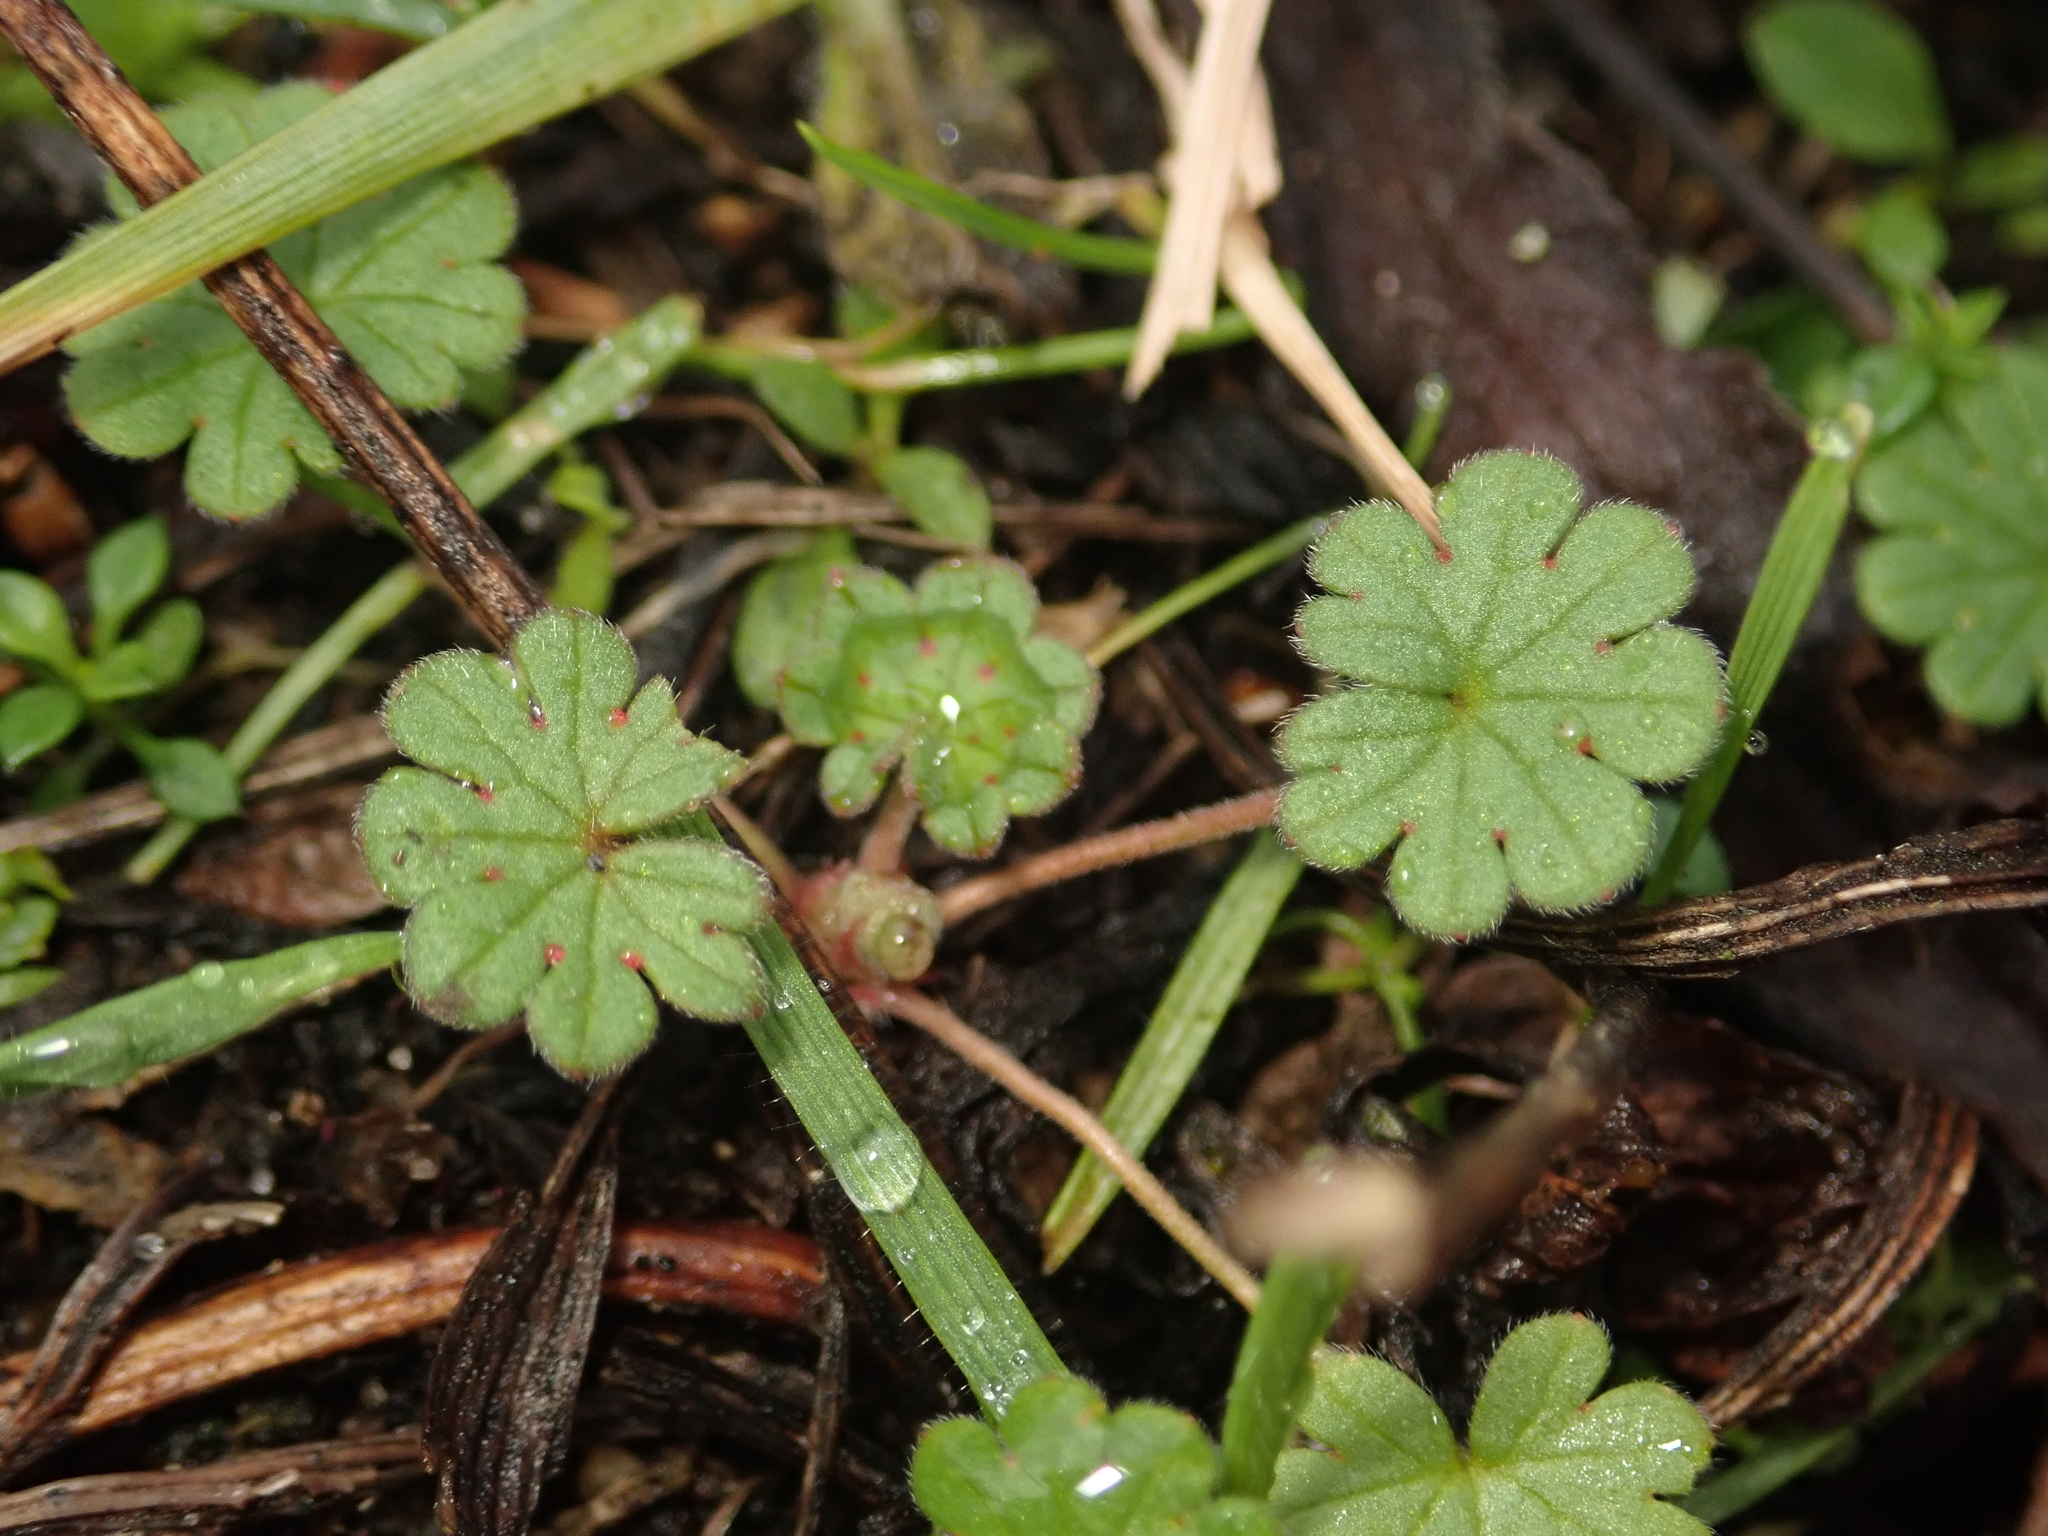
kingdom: Plantae
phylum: Tracheophyta
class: Magnoliopsida
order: Geraniales
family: Geraniaceae
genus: Geranium
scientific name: Geranium molle
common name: Dove's-foot crane's-bill
